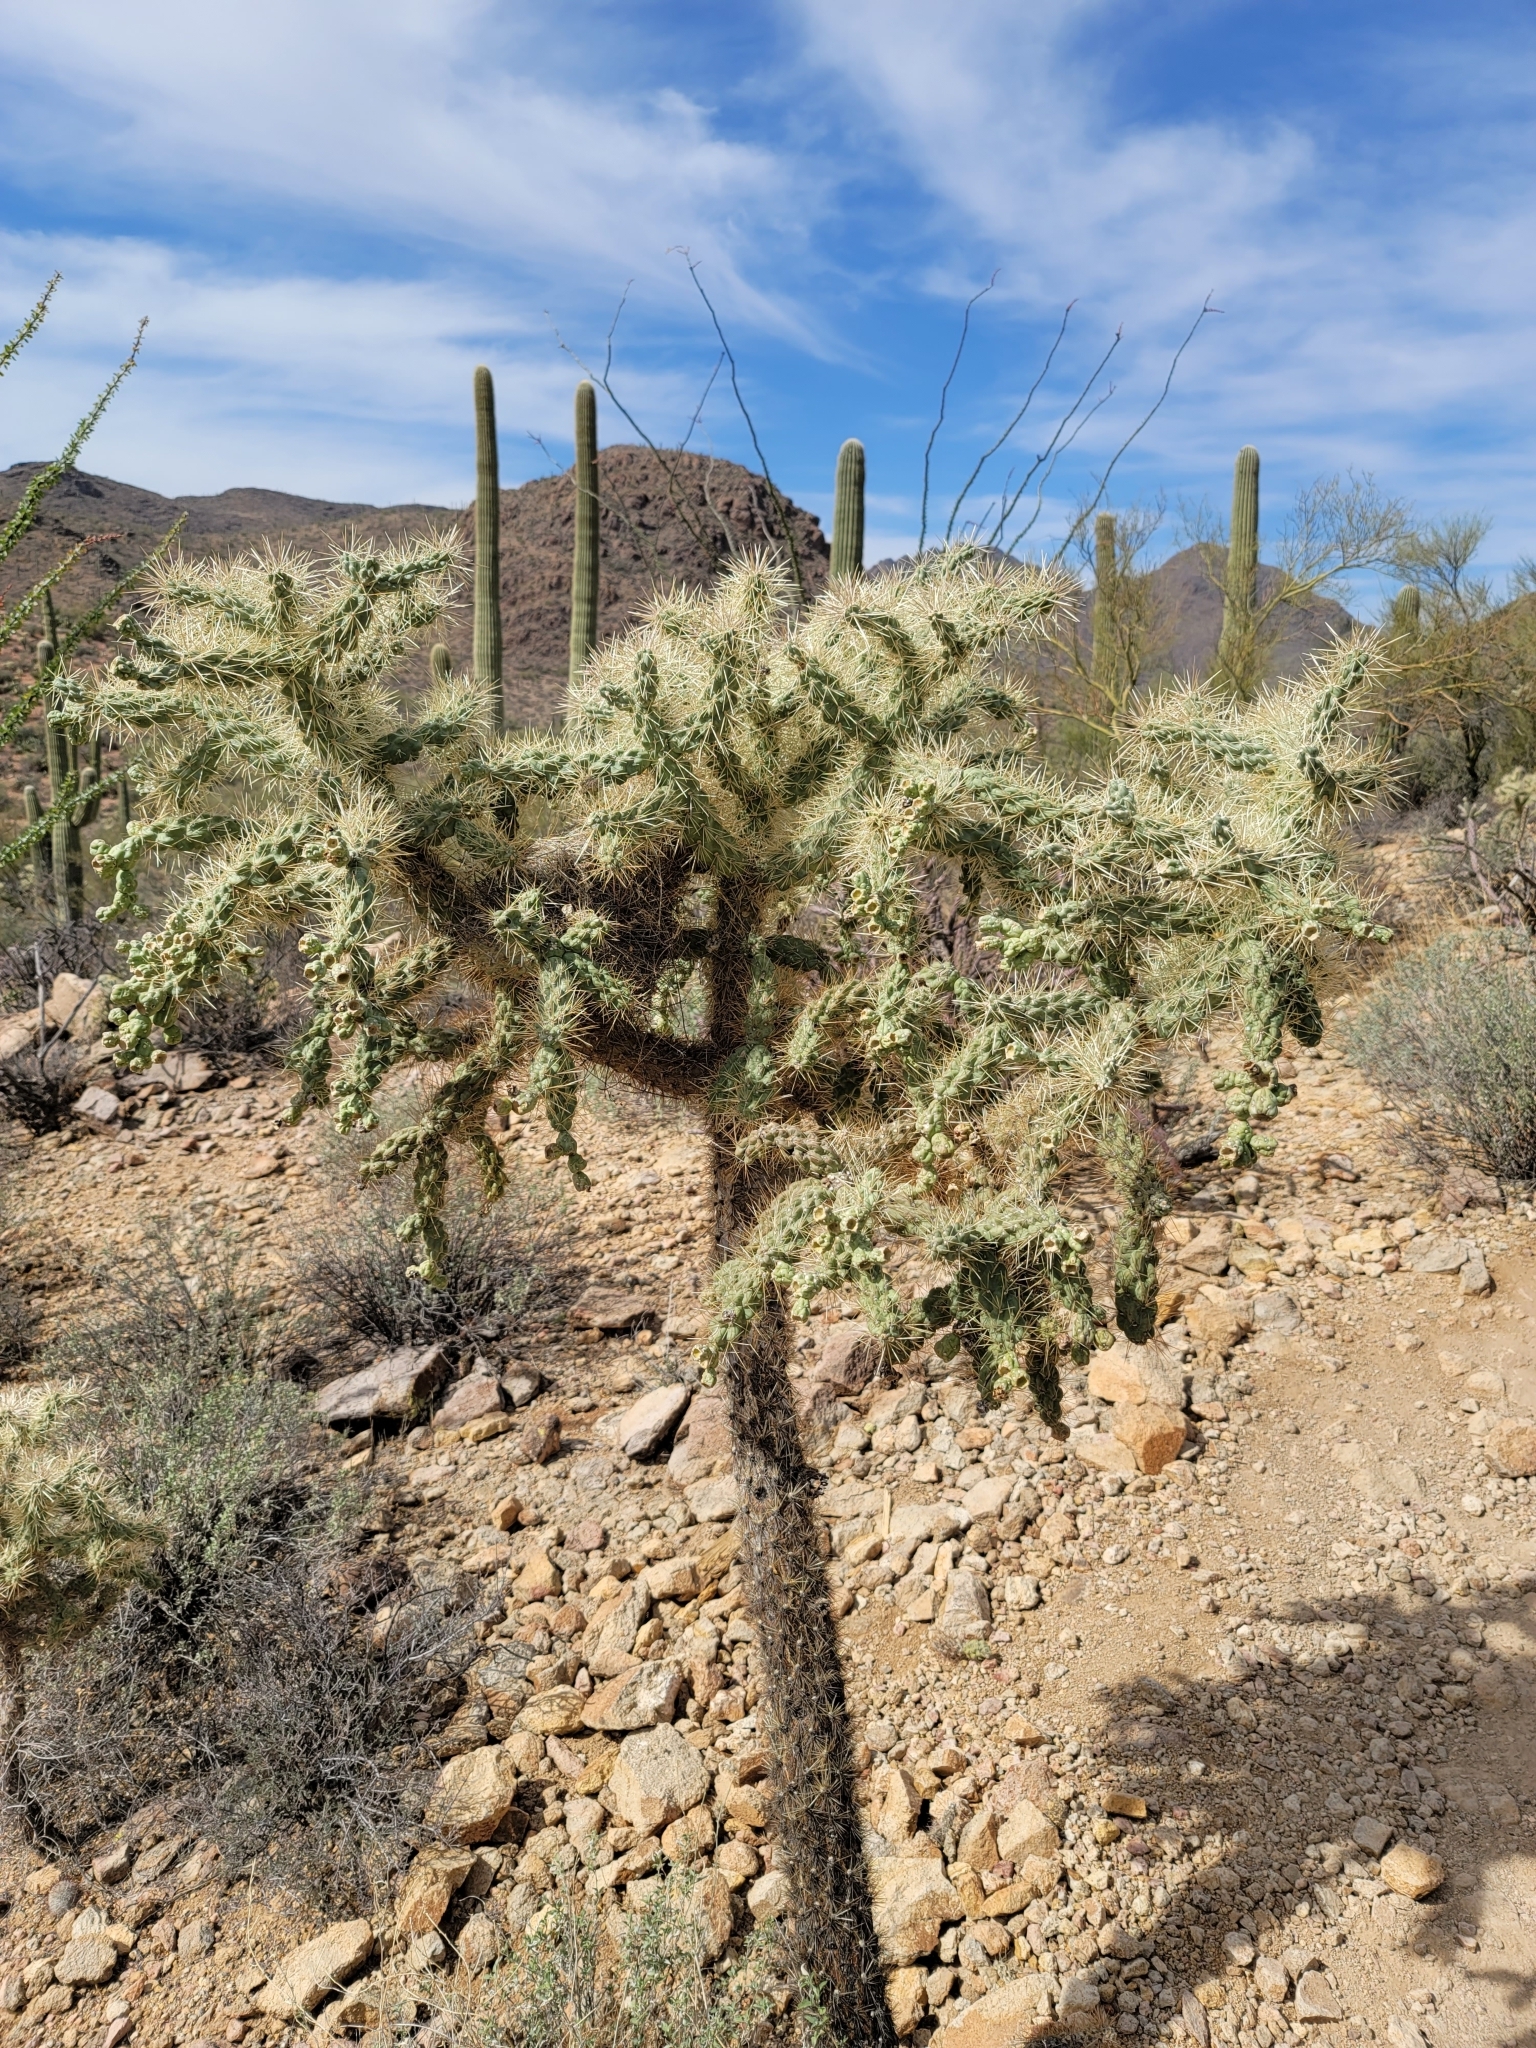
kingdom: Plantae
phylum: Tracheophyta
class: Magnoliopsida
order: Caryophyllales
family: Cactaceae
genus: Cylindropuntia
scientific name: Cylindropuntia fulgida
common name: Jumping cholla
